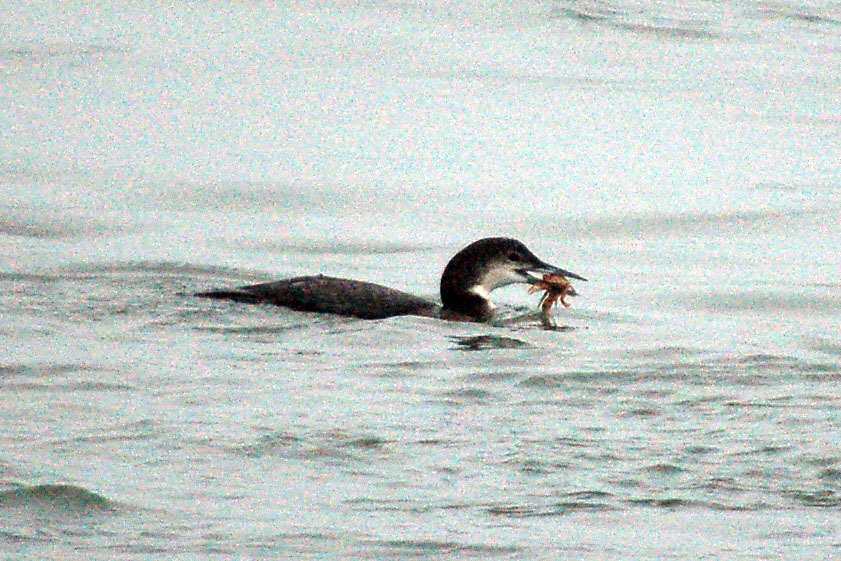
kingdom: Animalia
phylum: Chordata
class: Aves
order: Gaviiformes
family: Gaviidae
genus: Gavia
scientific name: Gavia immer
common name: Common loon
